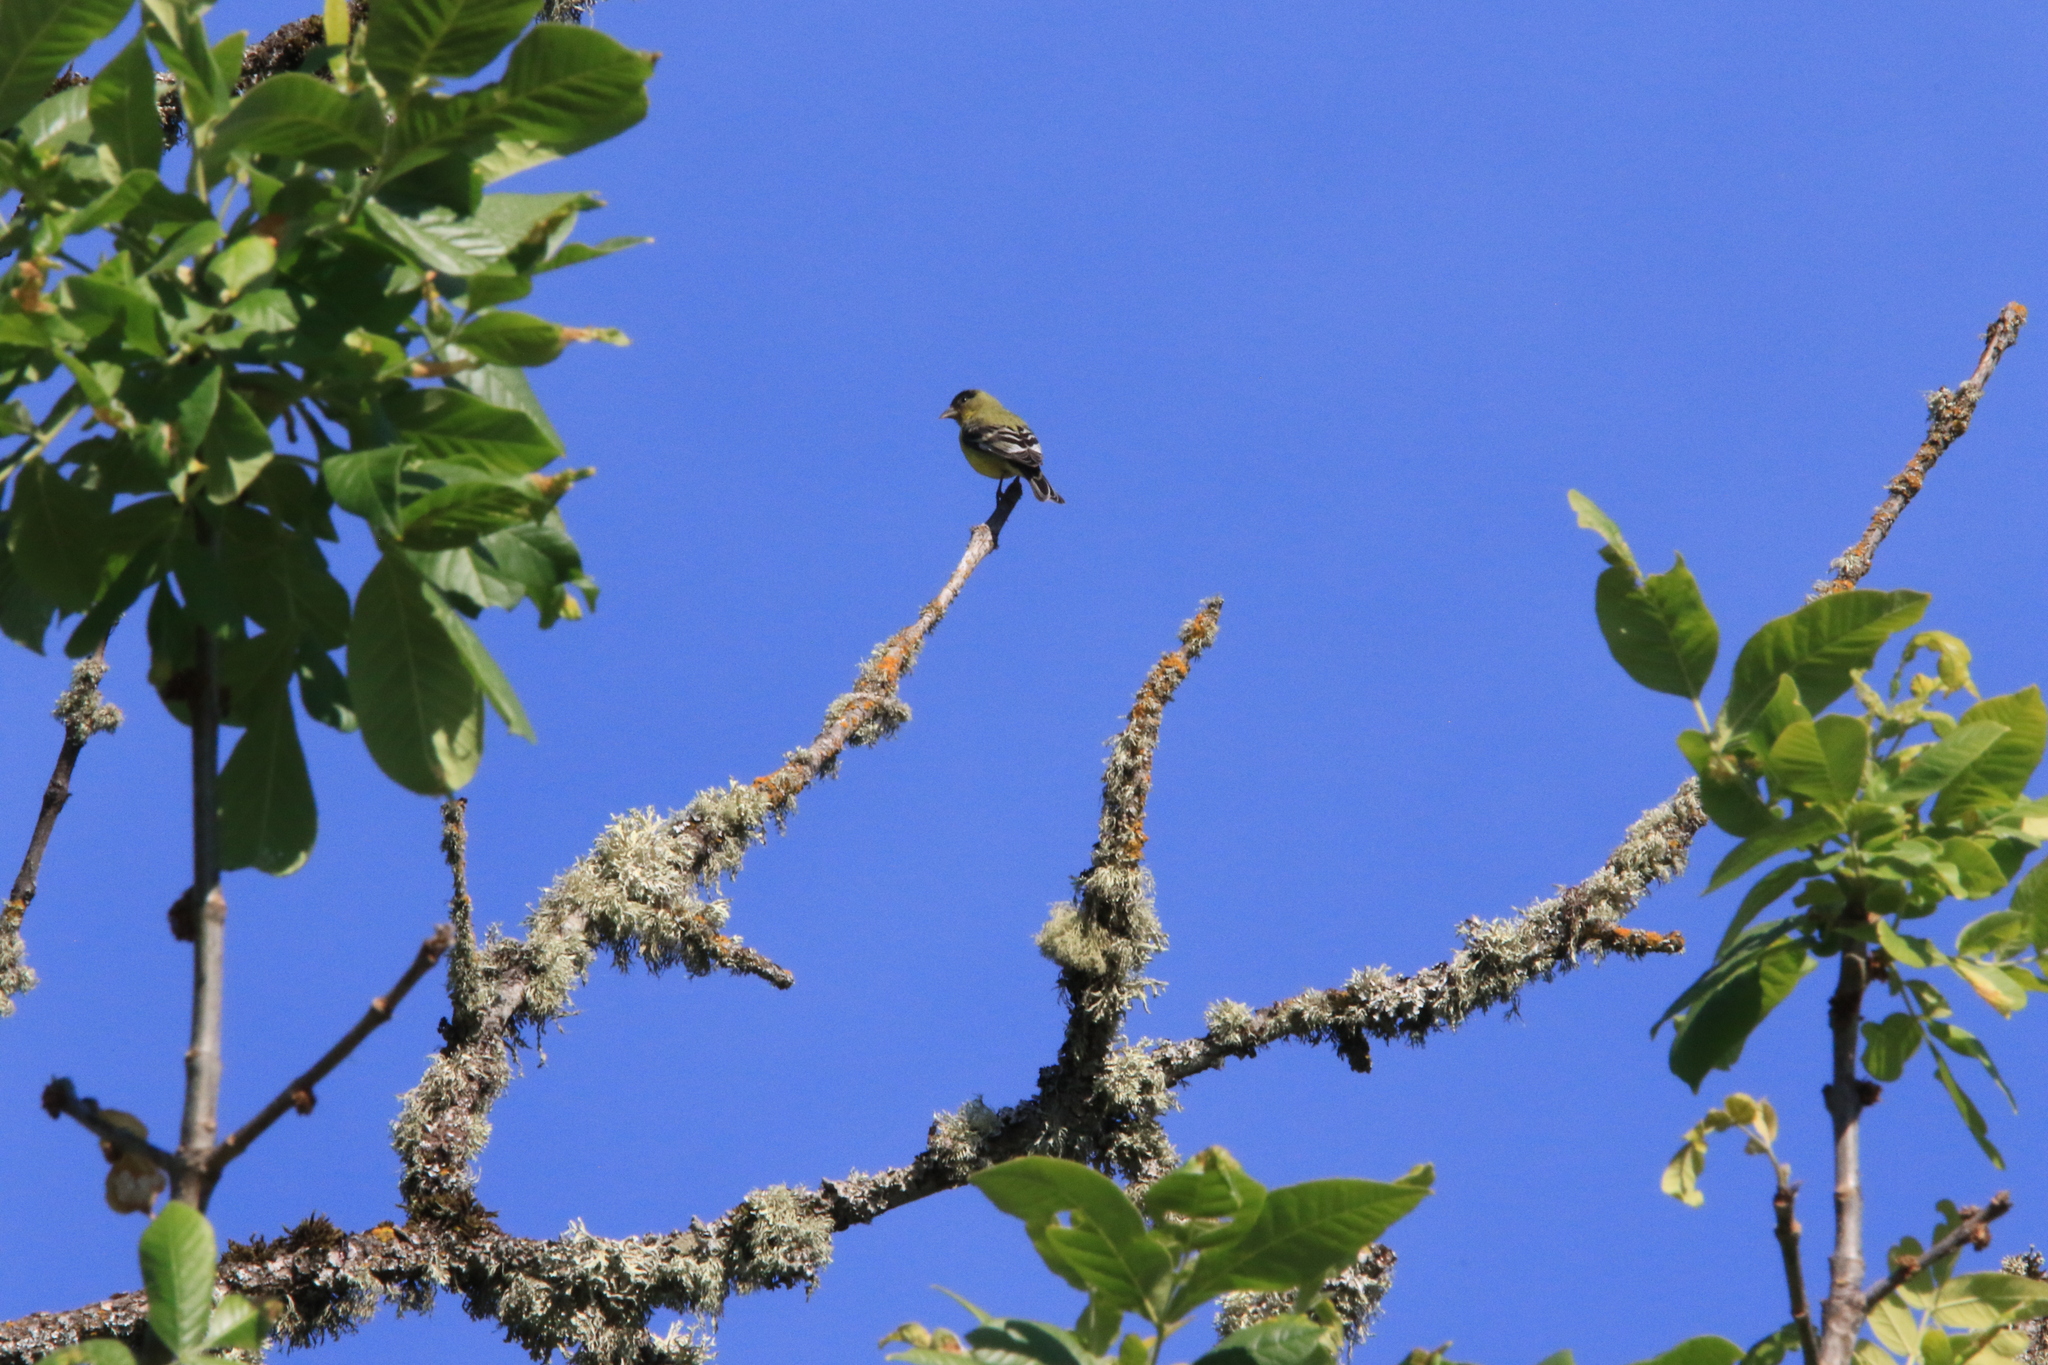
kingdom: Animalia
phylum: Chordata
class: Aves
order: Passeriformes
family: Fringillidae
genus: Spinus
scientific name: Spinus psaltria
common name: Lesser goldfinch
